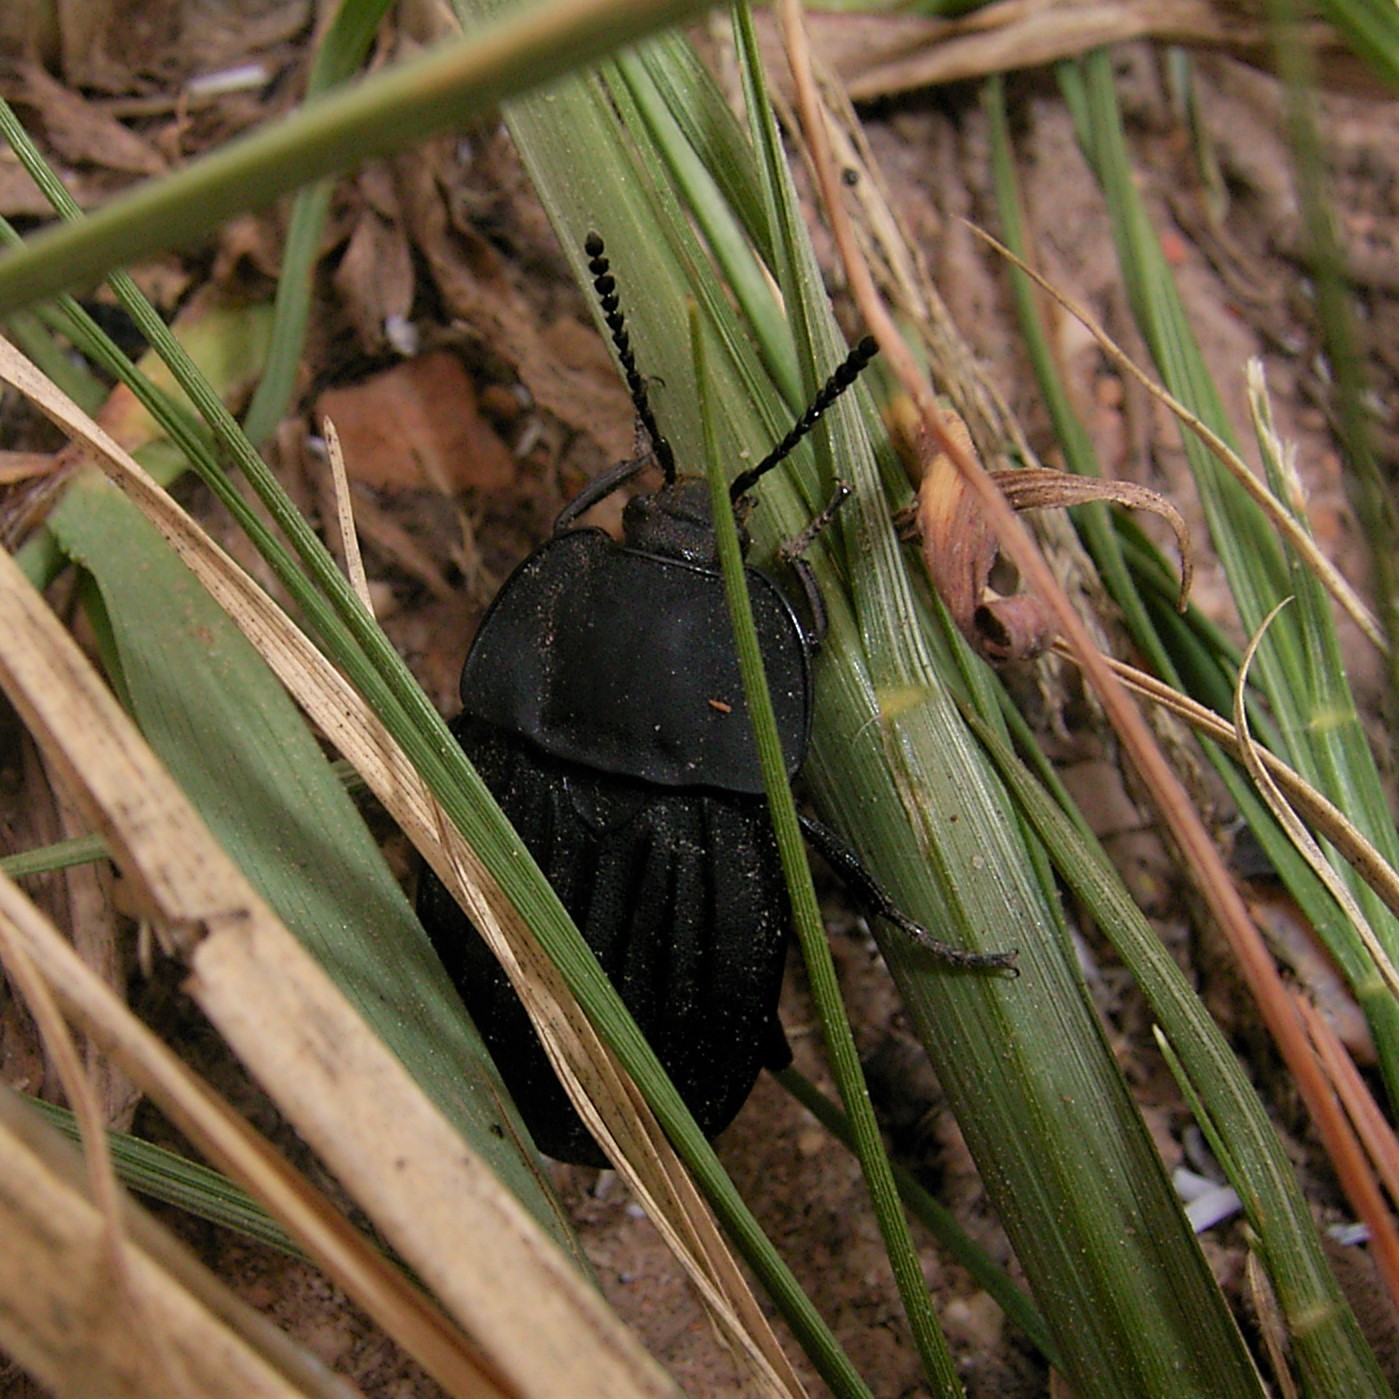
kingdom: Animalia
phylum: Arthropoda
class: Insecta
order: Coleoptera
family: Staphylinidae
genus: Silpha
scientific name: Silpha capicola
